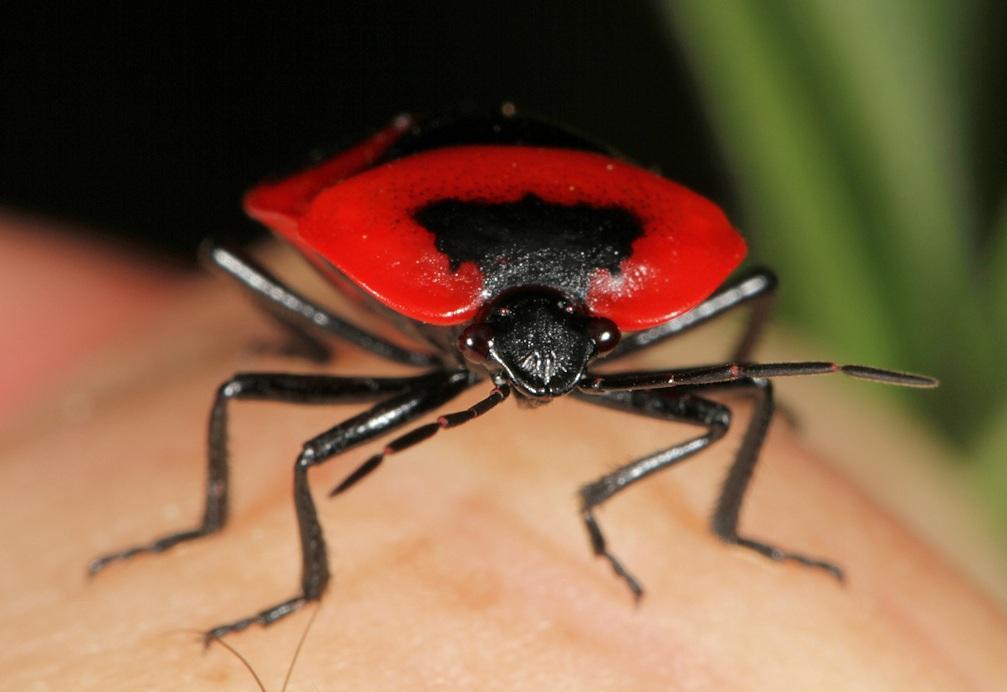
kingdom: Animalia
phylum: Arthropoda
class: Insecta
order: Hemiptera
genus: Dismegistus
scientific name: Dismegistus
